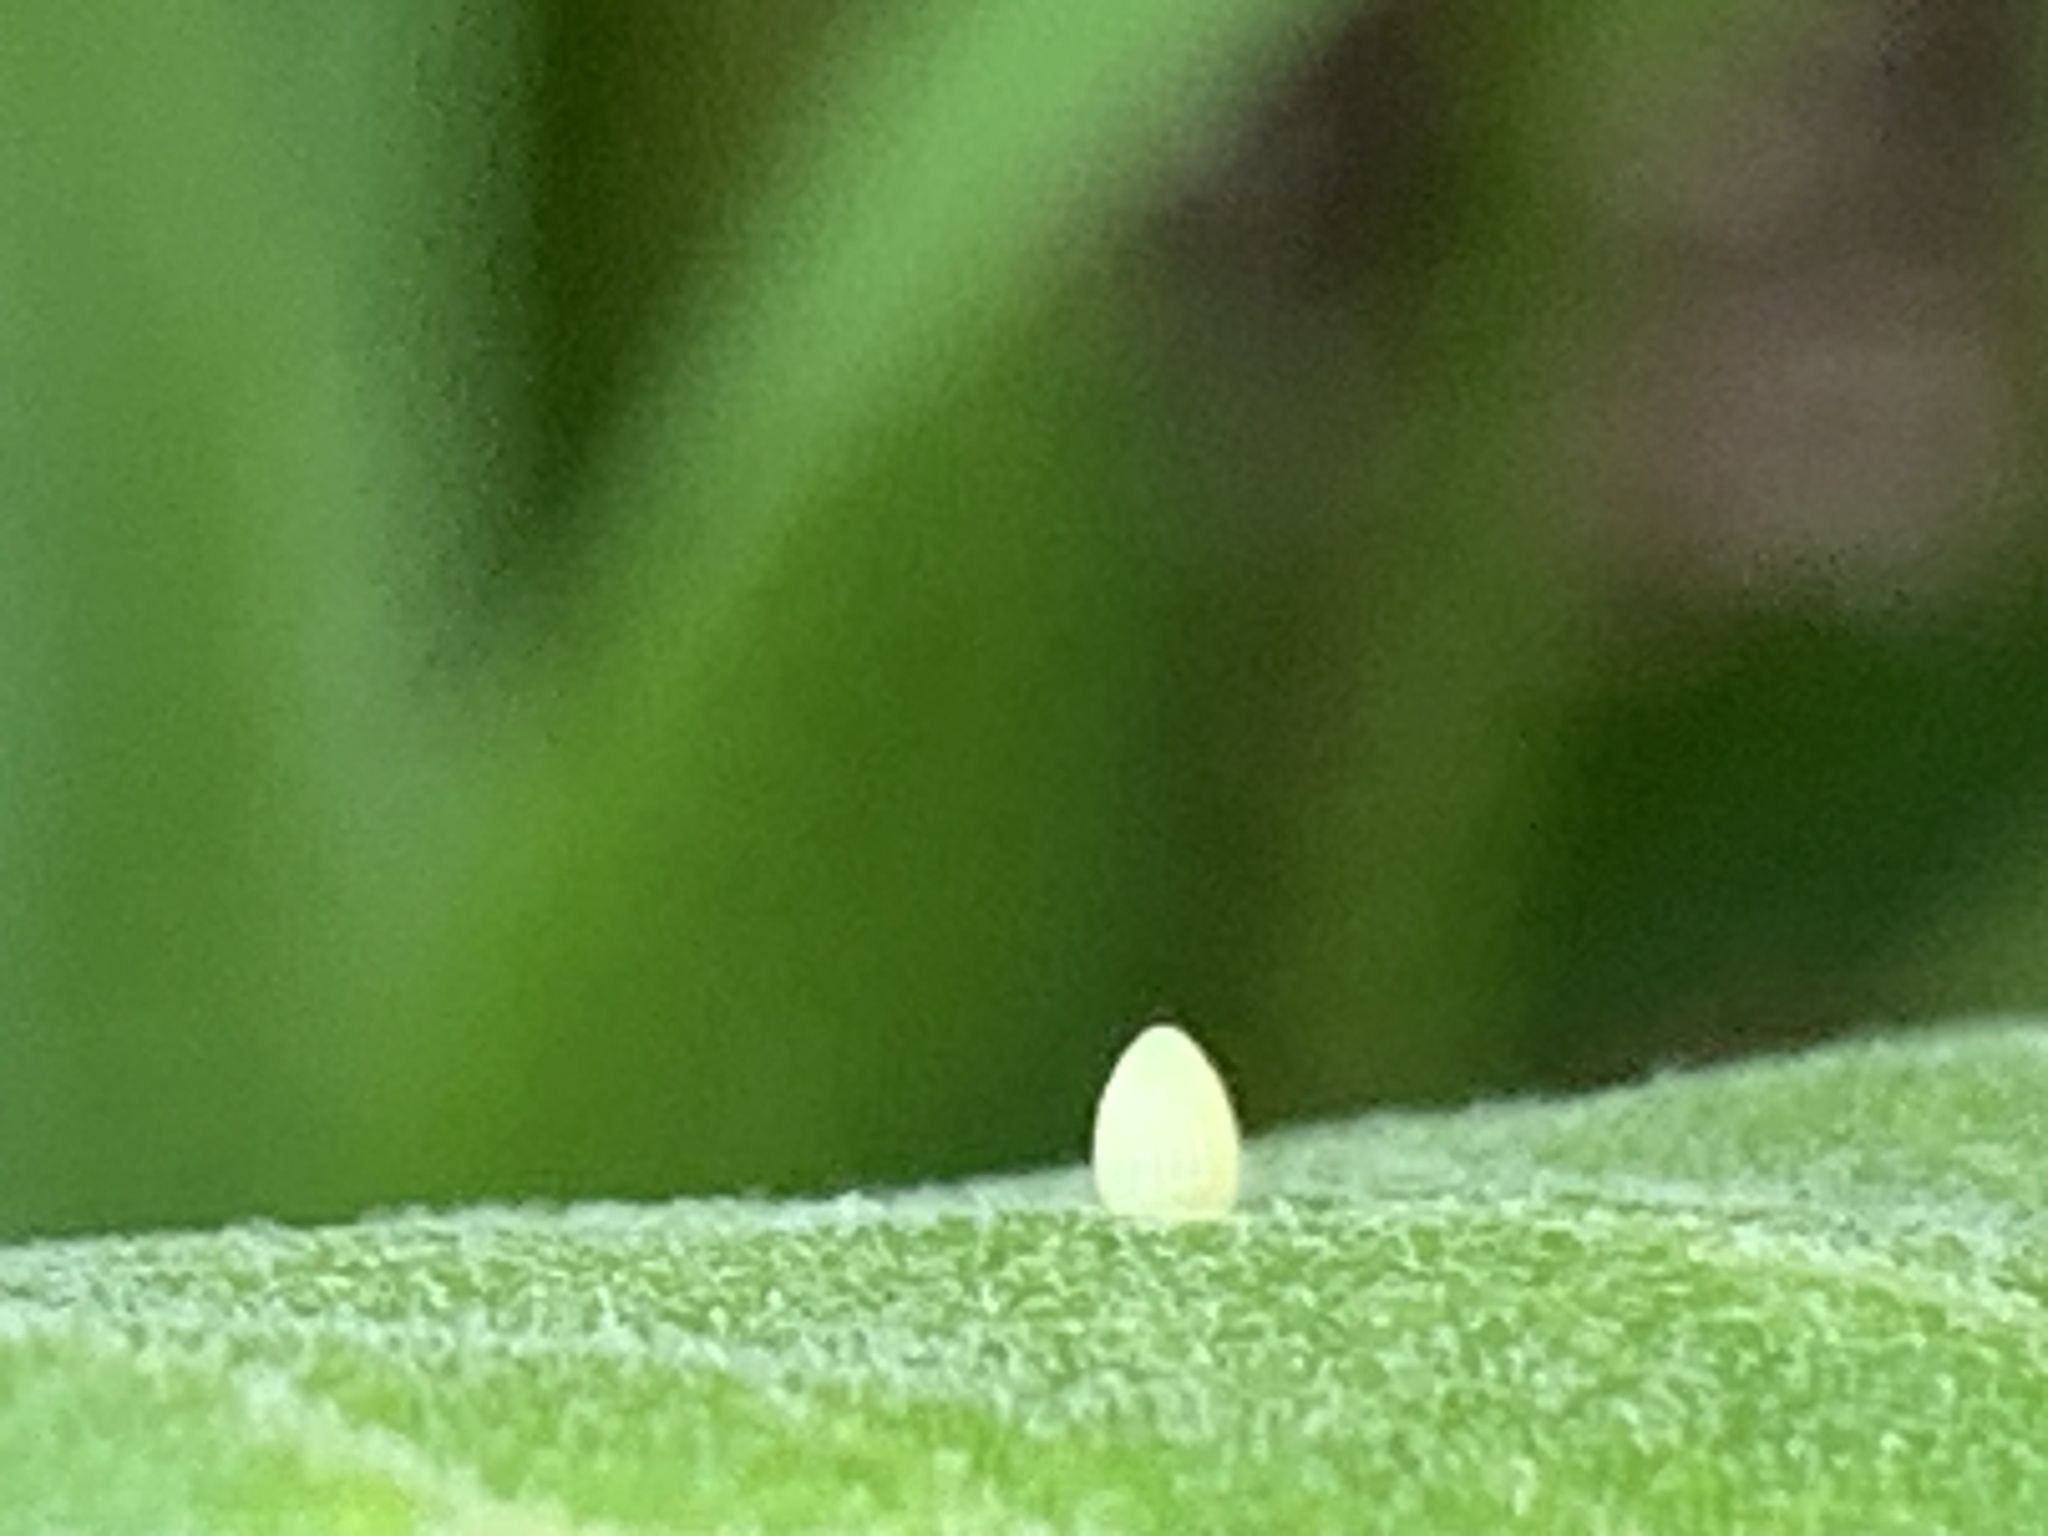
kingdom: Animalia
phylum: Arthropoda
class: Insecta
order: Lepidoptera
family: Nymphalidae
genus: Danaus
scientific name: Danaus plexippus
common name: Monarch
